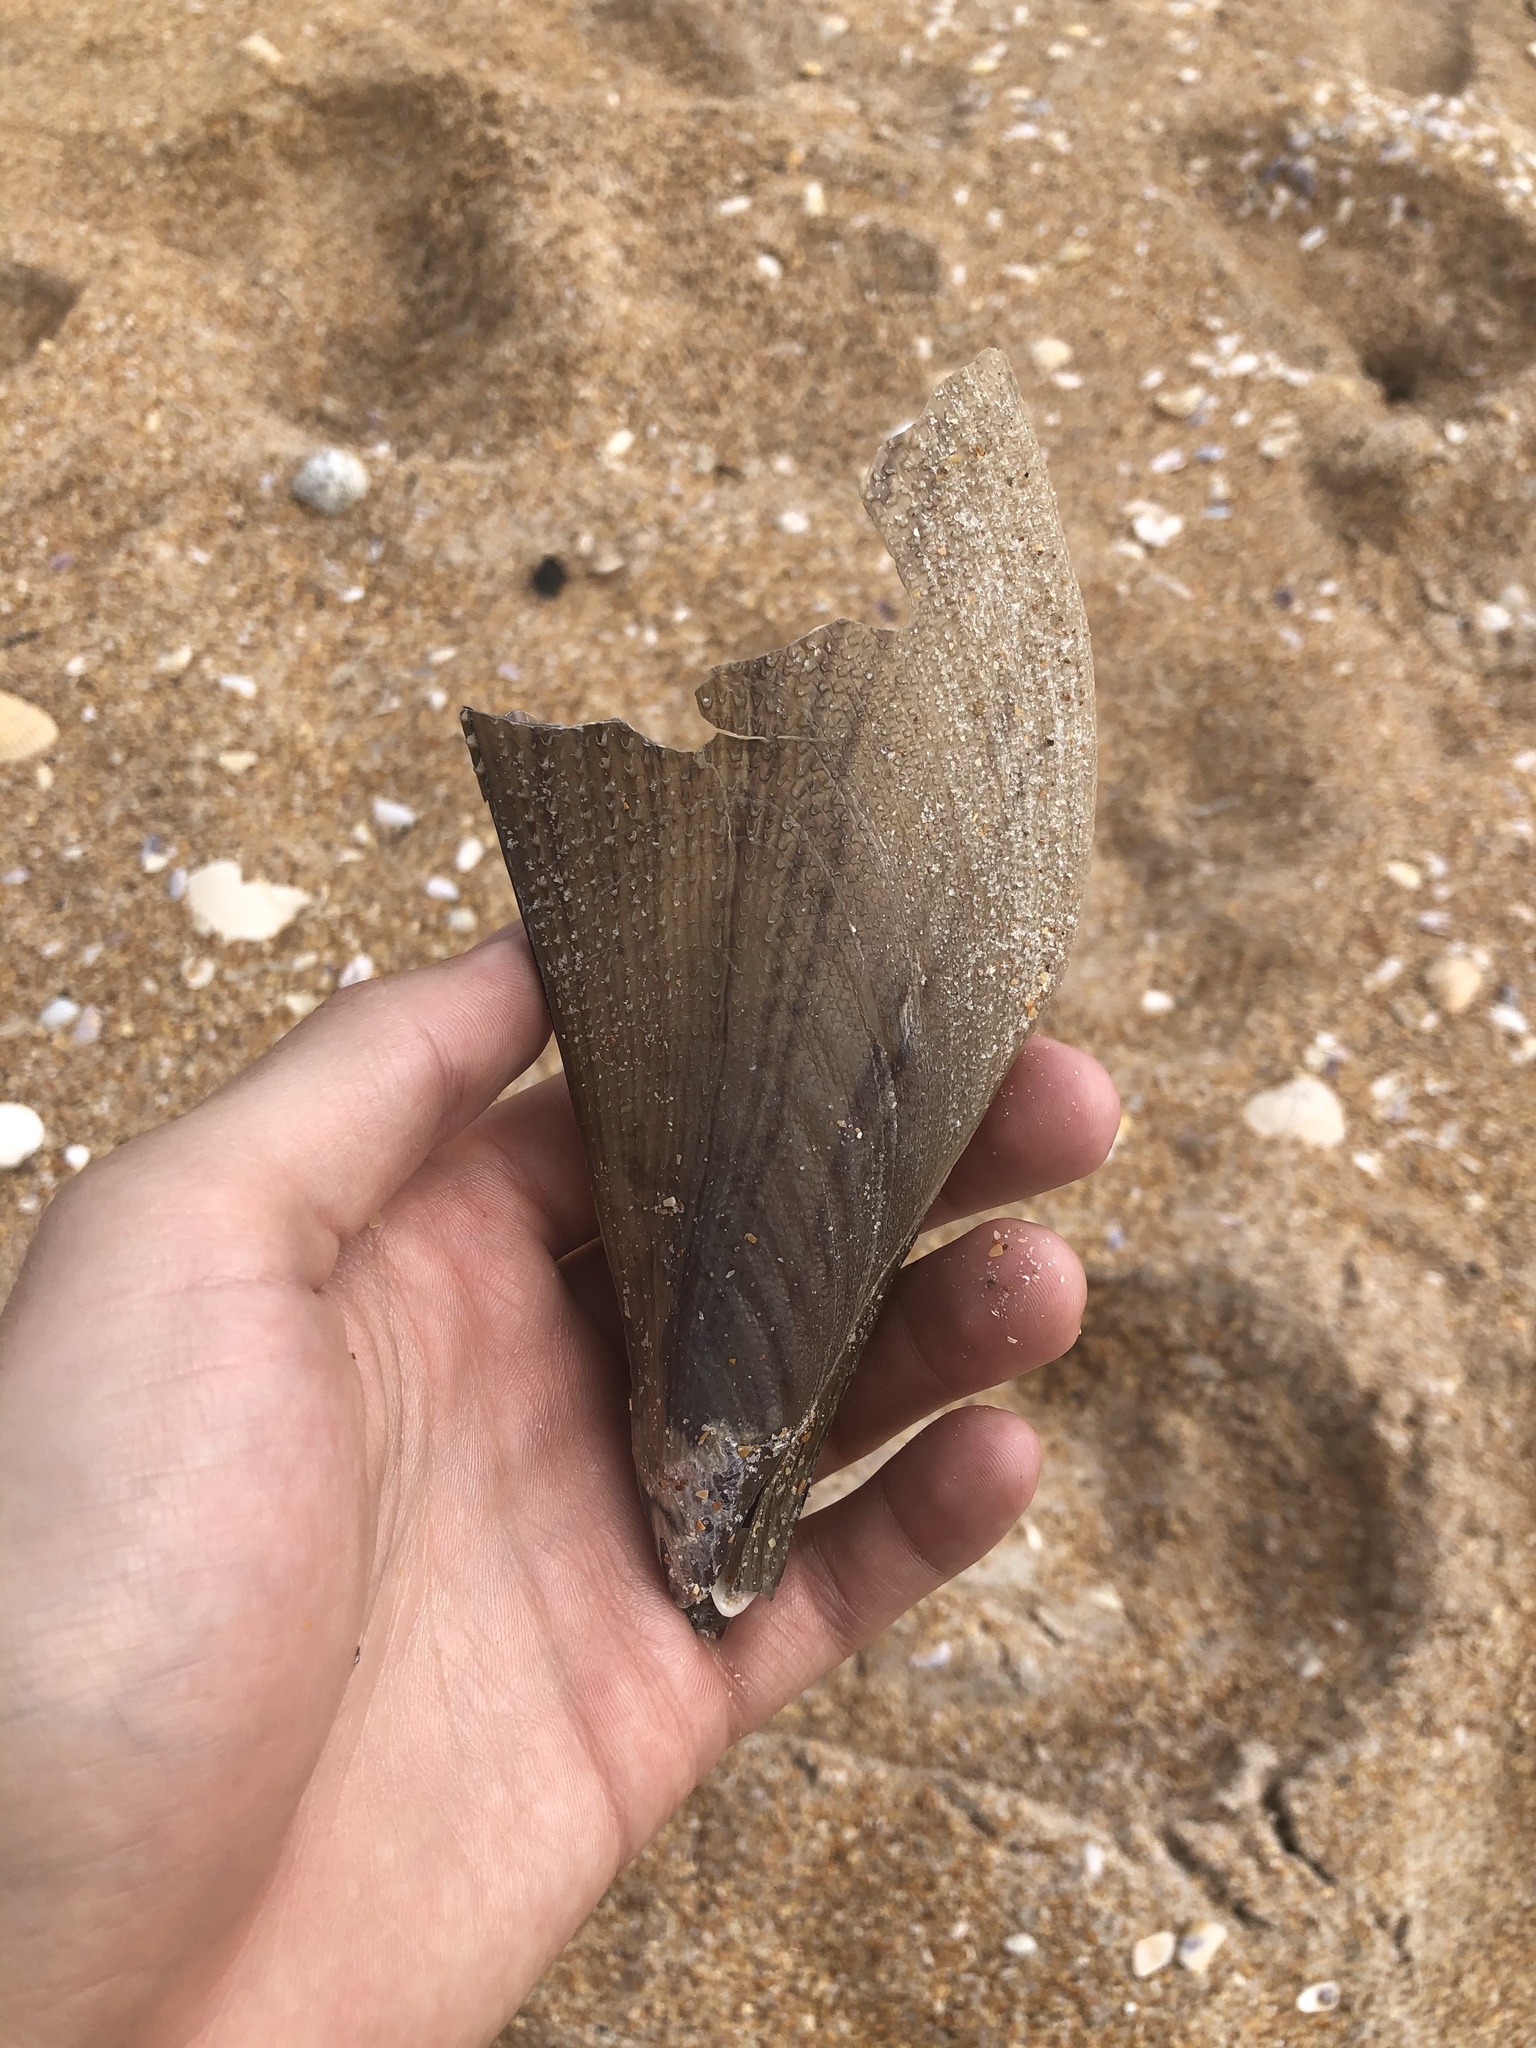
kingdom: Animalia
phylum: Mollusca
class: Bivalvia
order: Ostreida
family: Pinnidae
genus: Atrina
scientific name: Atrina serrata
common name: Saw-toothed penshell
